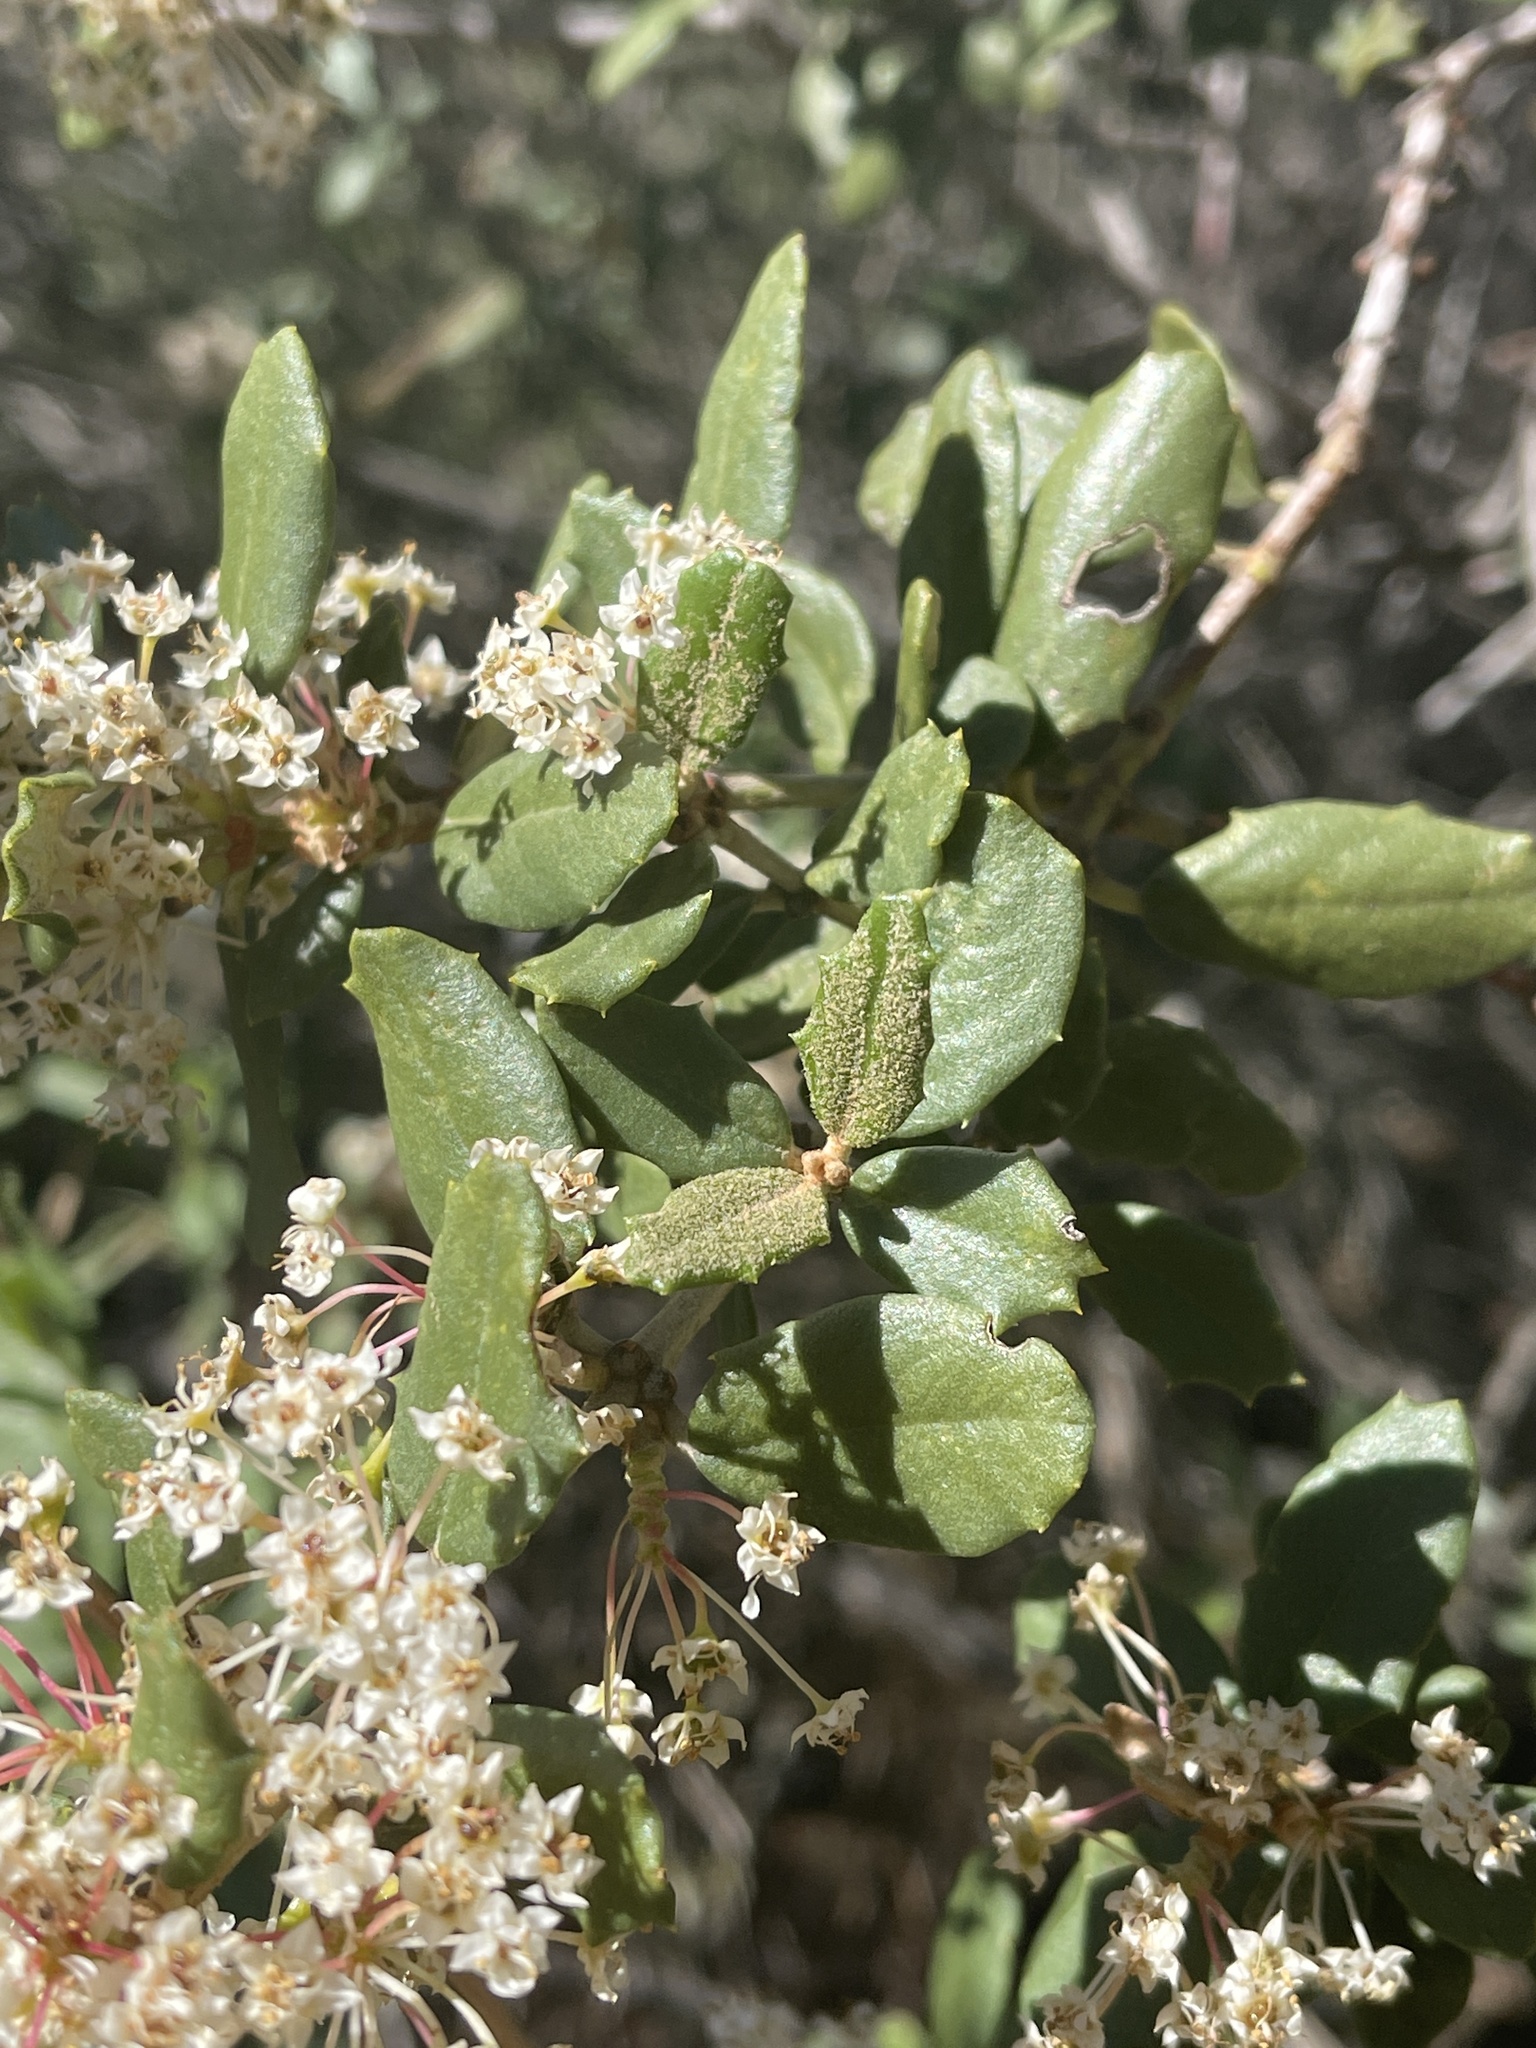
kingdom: Plantae
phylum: Tracheophyta
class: Magnoliopsida
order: Rosales
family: Rhamnaceae
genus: Ceanothus
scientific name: Ceanothus crassifolius
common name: Hoaryleaf ceanothus
